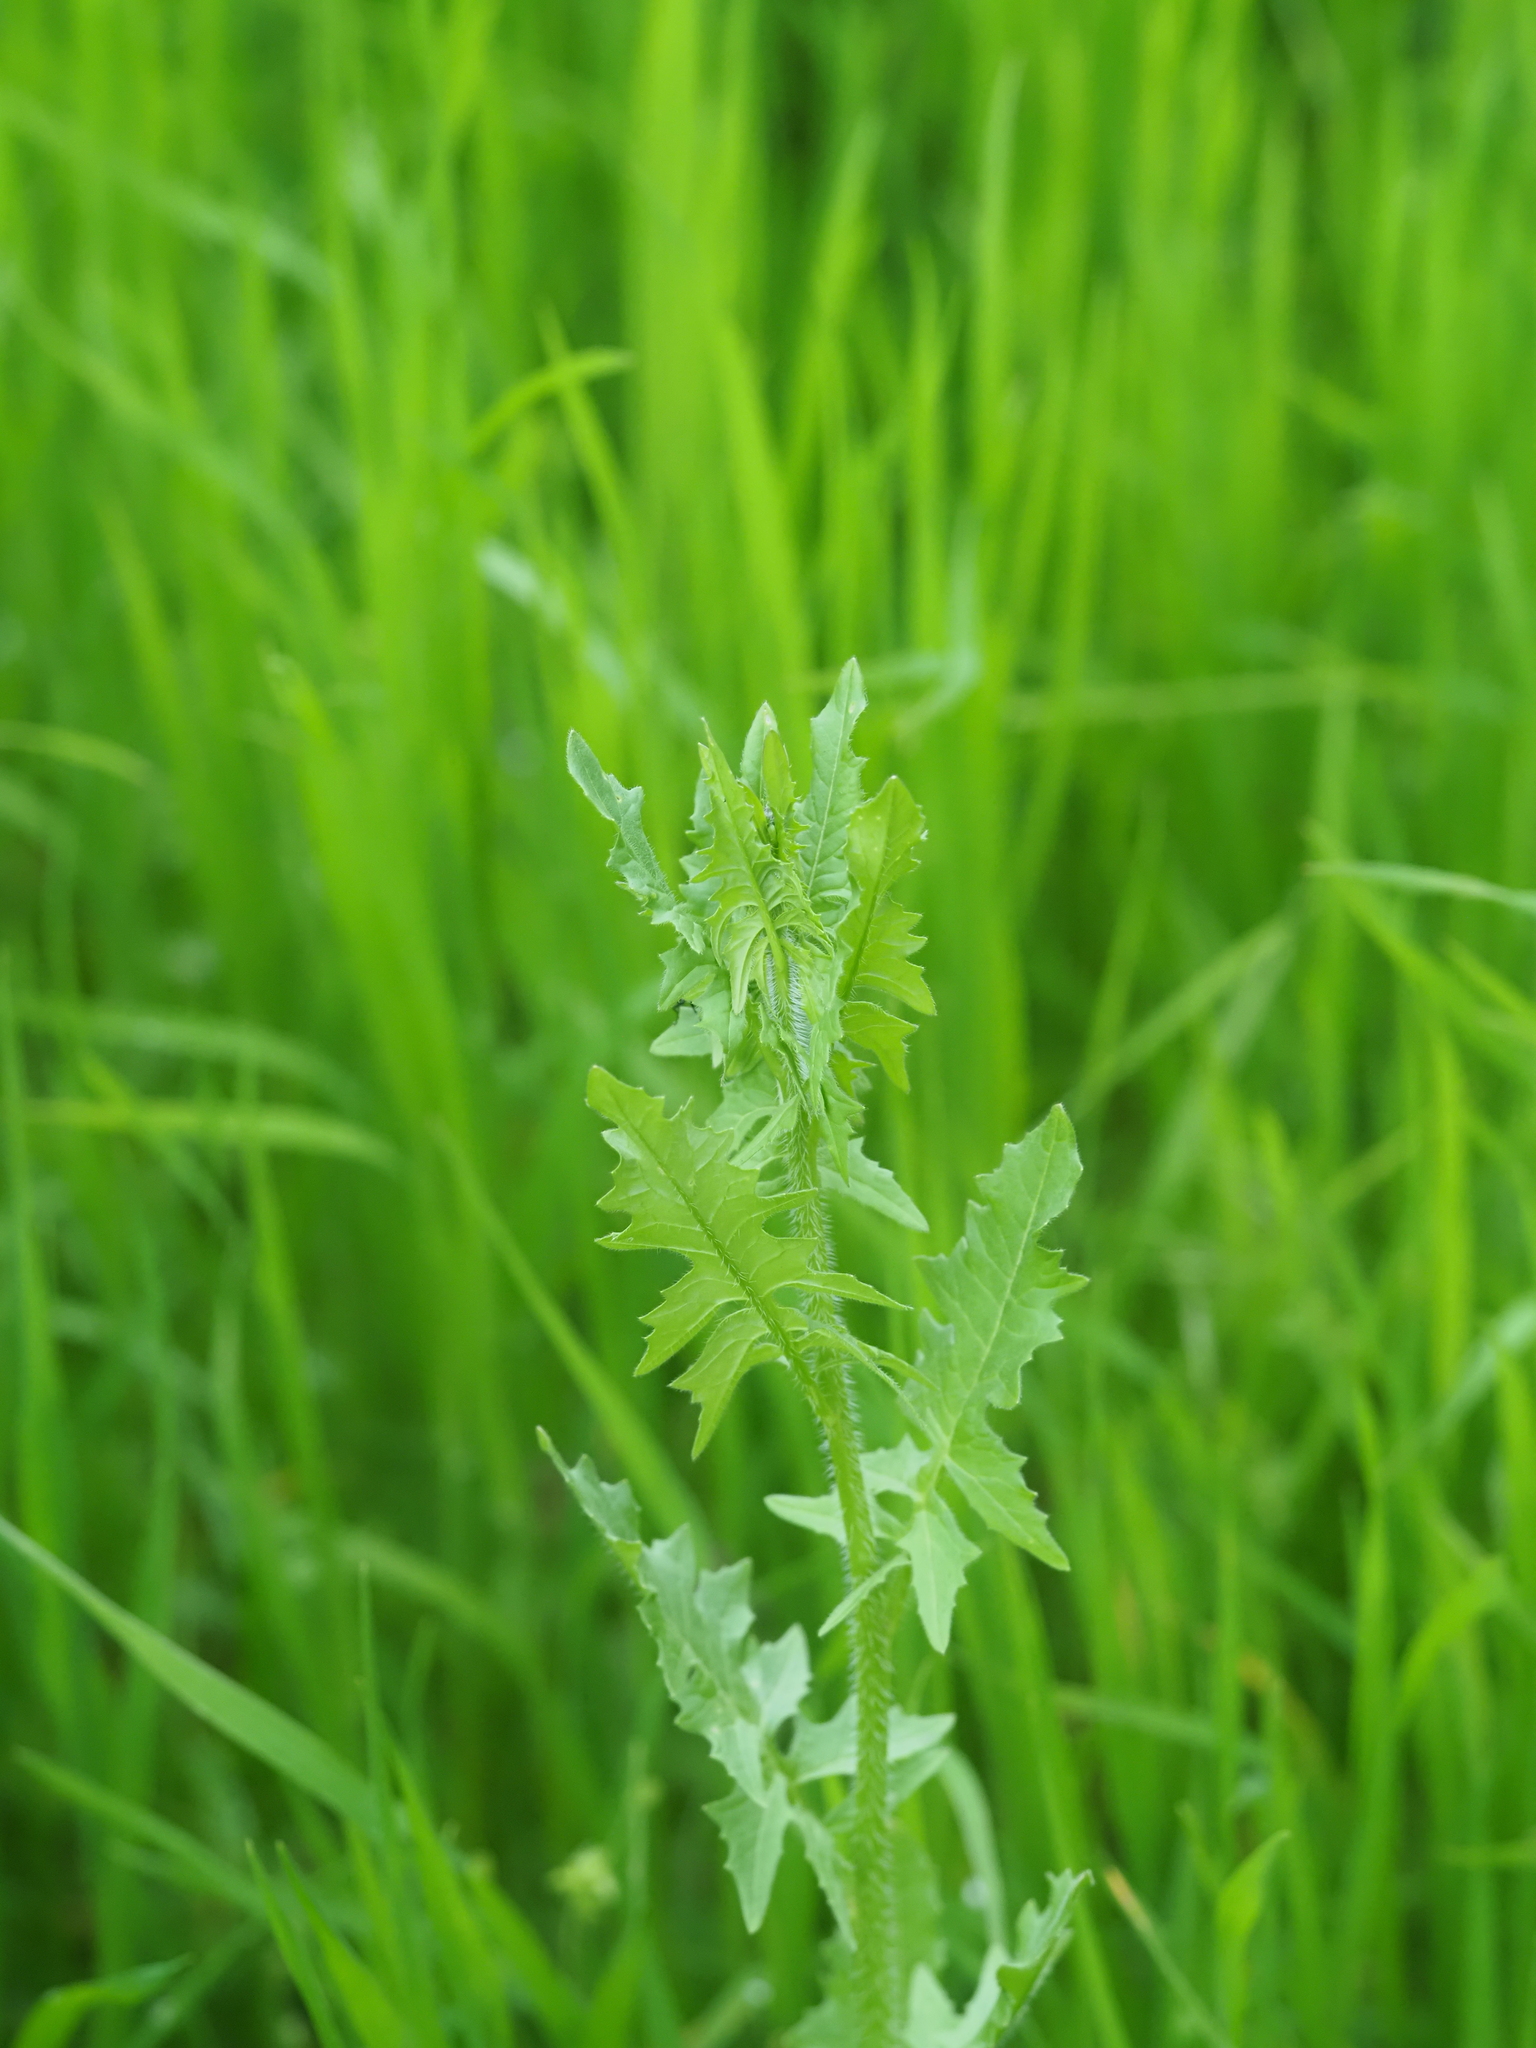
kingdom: Plantae
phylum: Tracheophyta
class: Magnoliopsida
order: Brassicales
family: Brassicaceae
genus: Sisymbrium
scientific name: Sisymbrium loeselii
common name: False london-rocket
